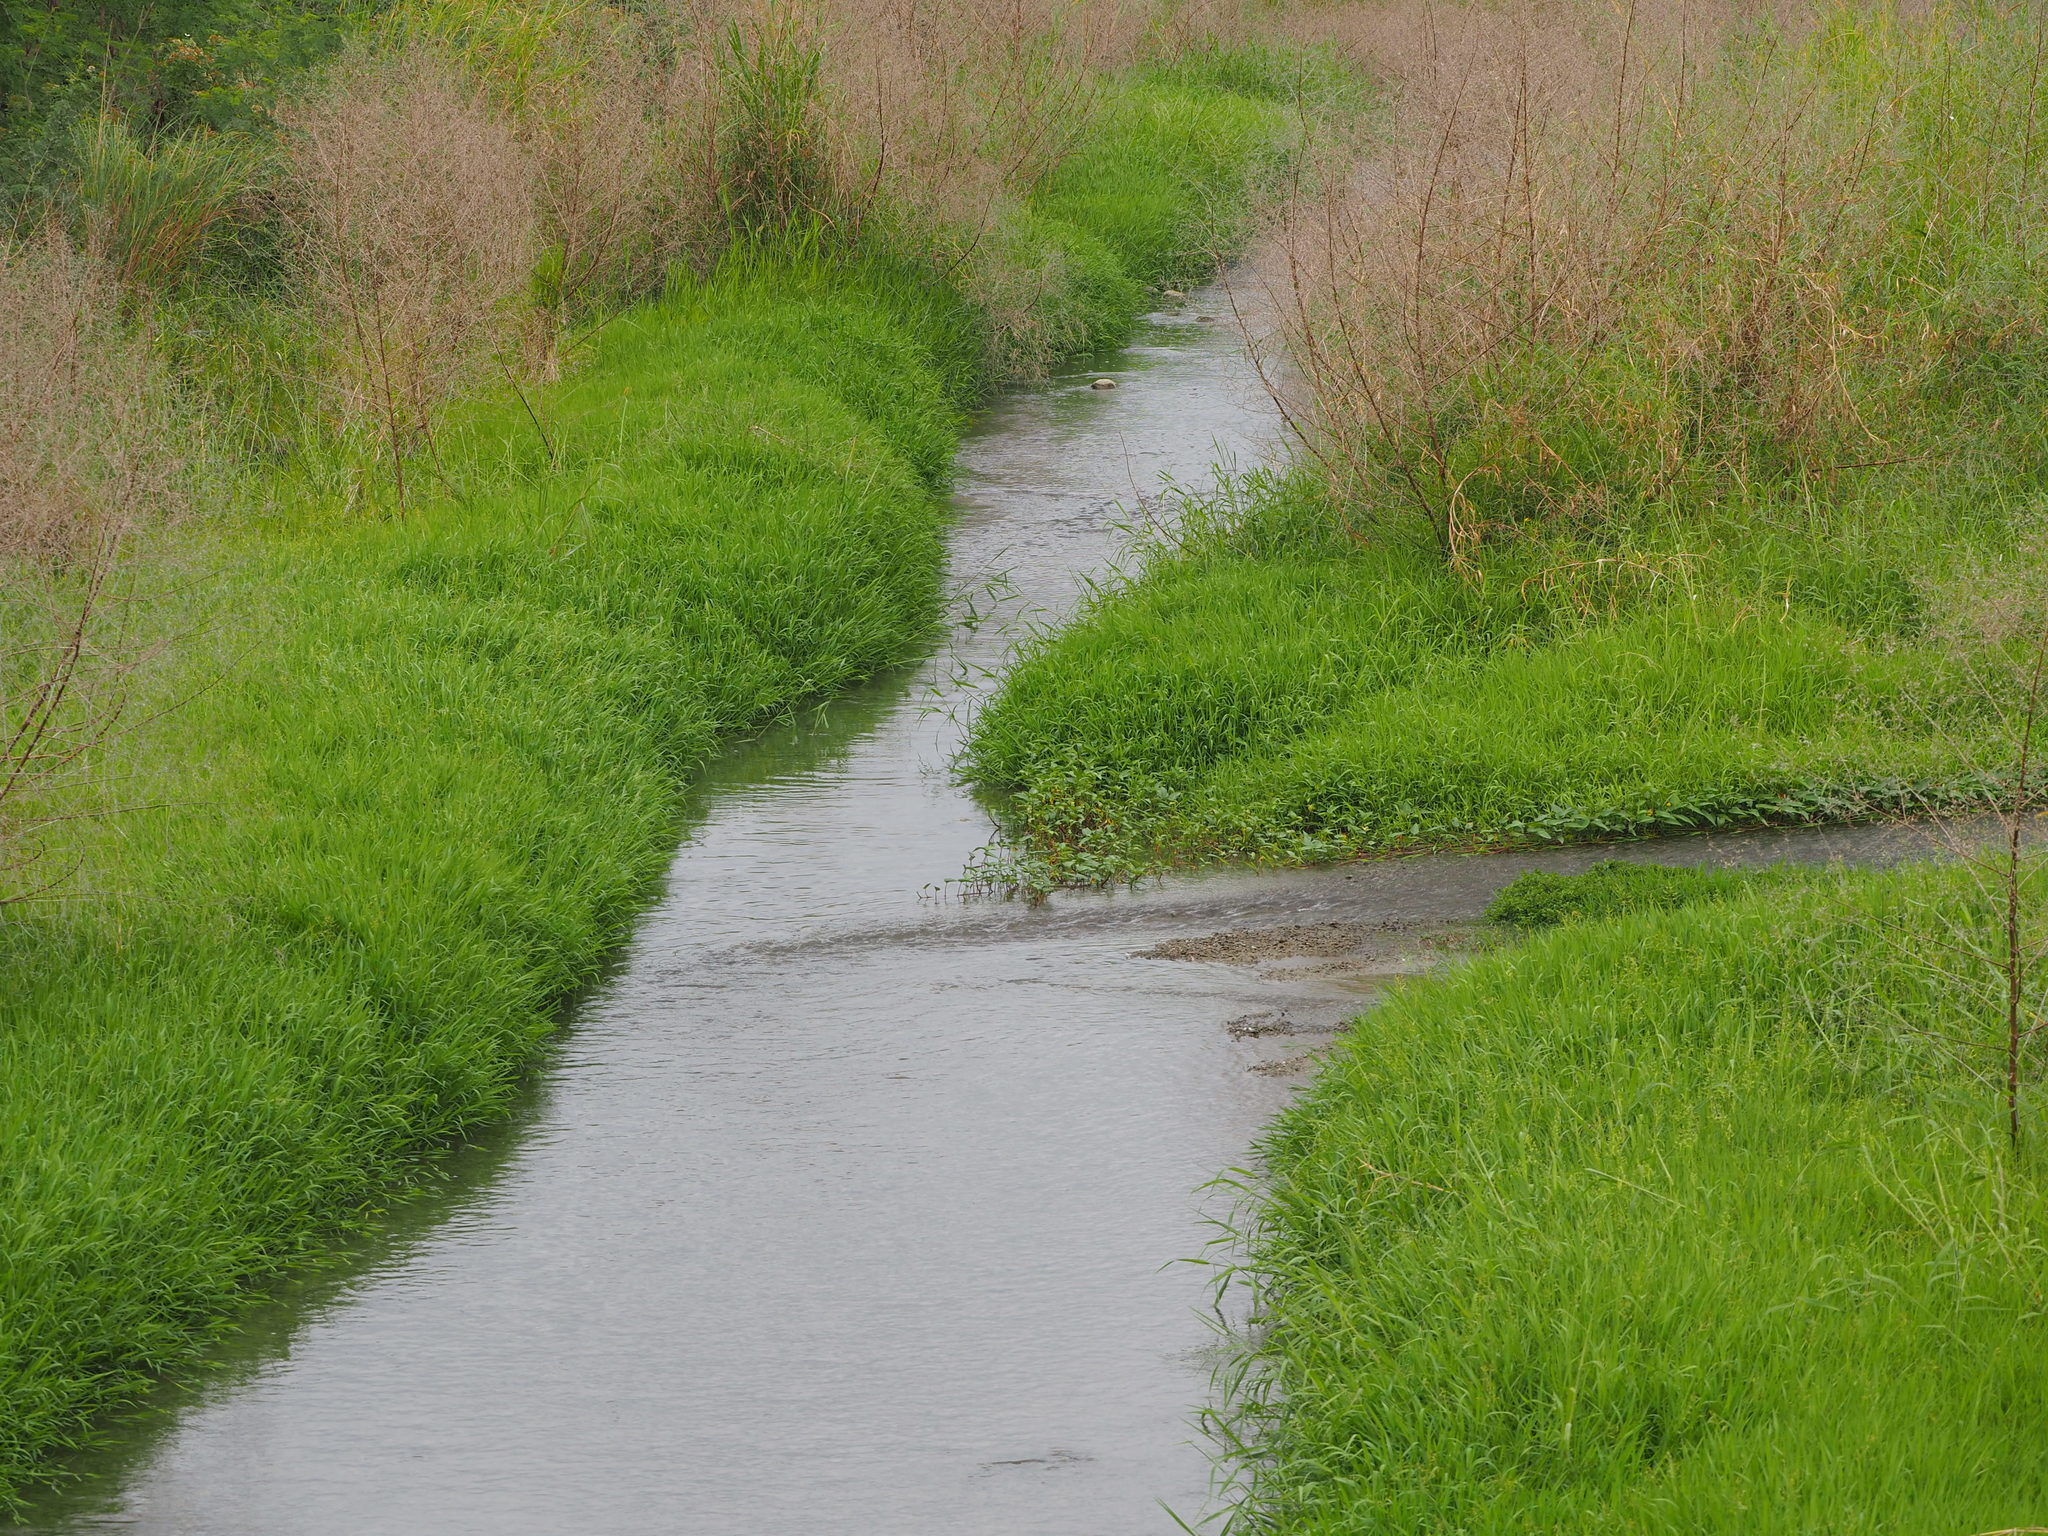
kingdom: Plantae
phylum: Tracheophyta
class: Liliopsida
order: Poales
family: Poaceae
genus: Leersia
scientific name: Leersia hexandra
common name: Southern cut grass
